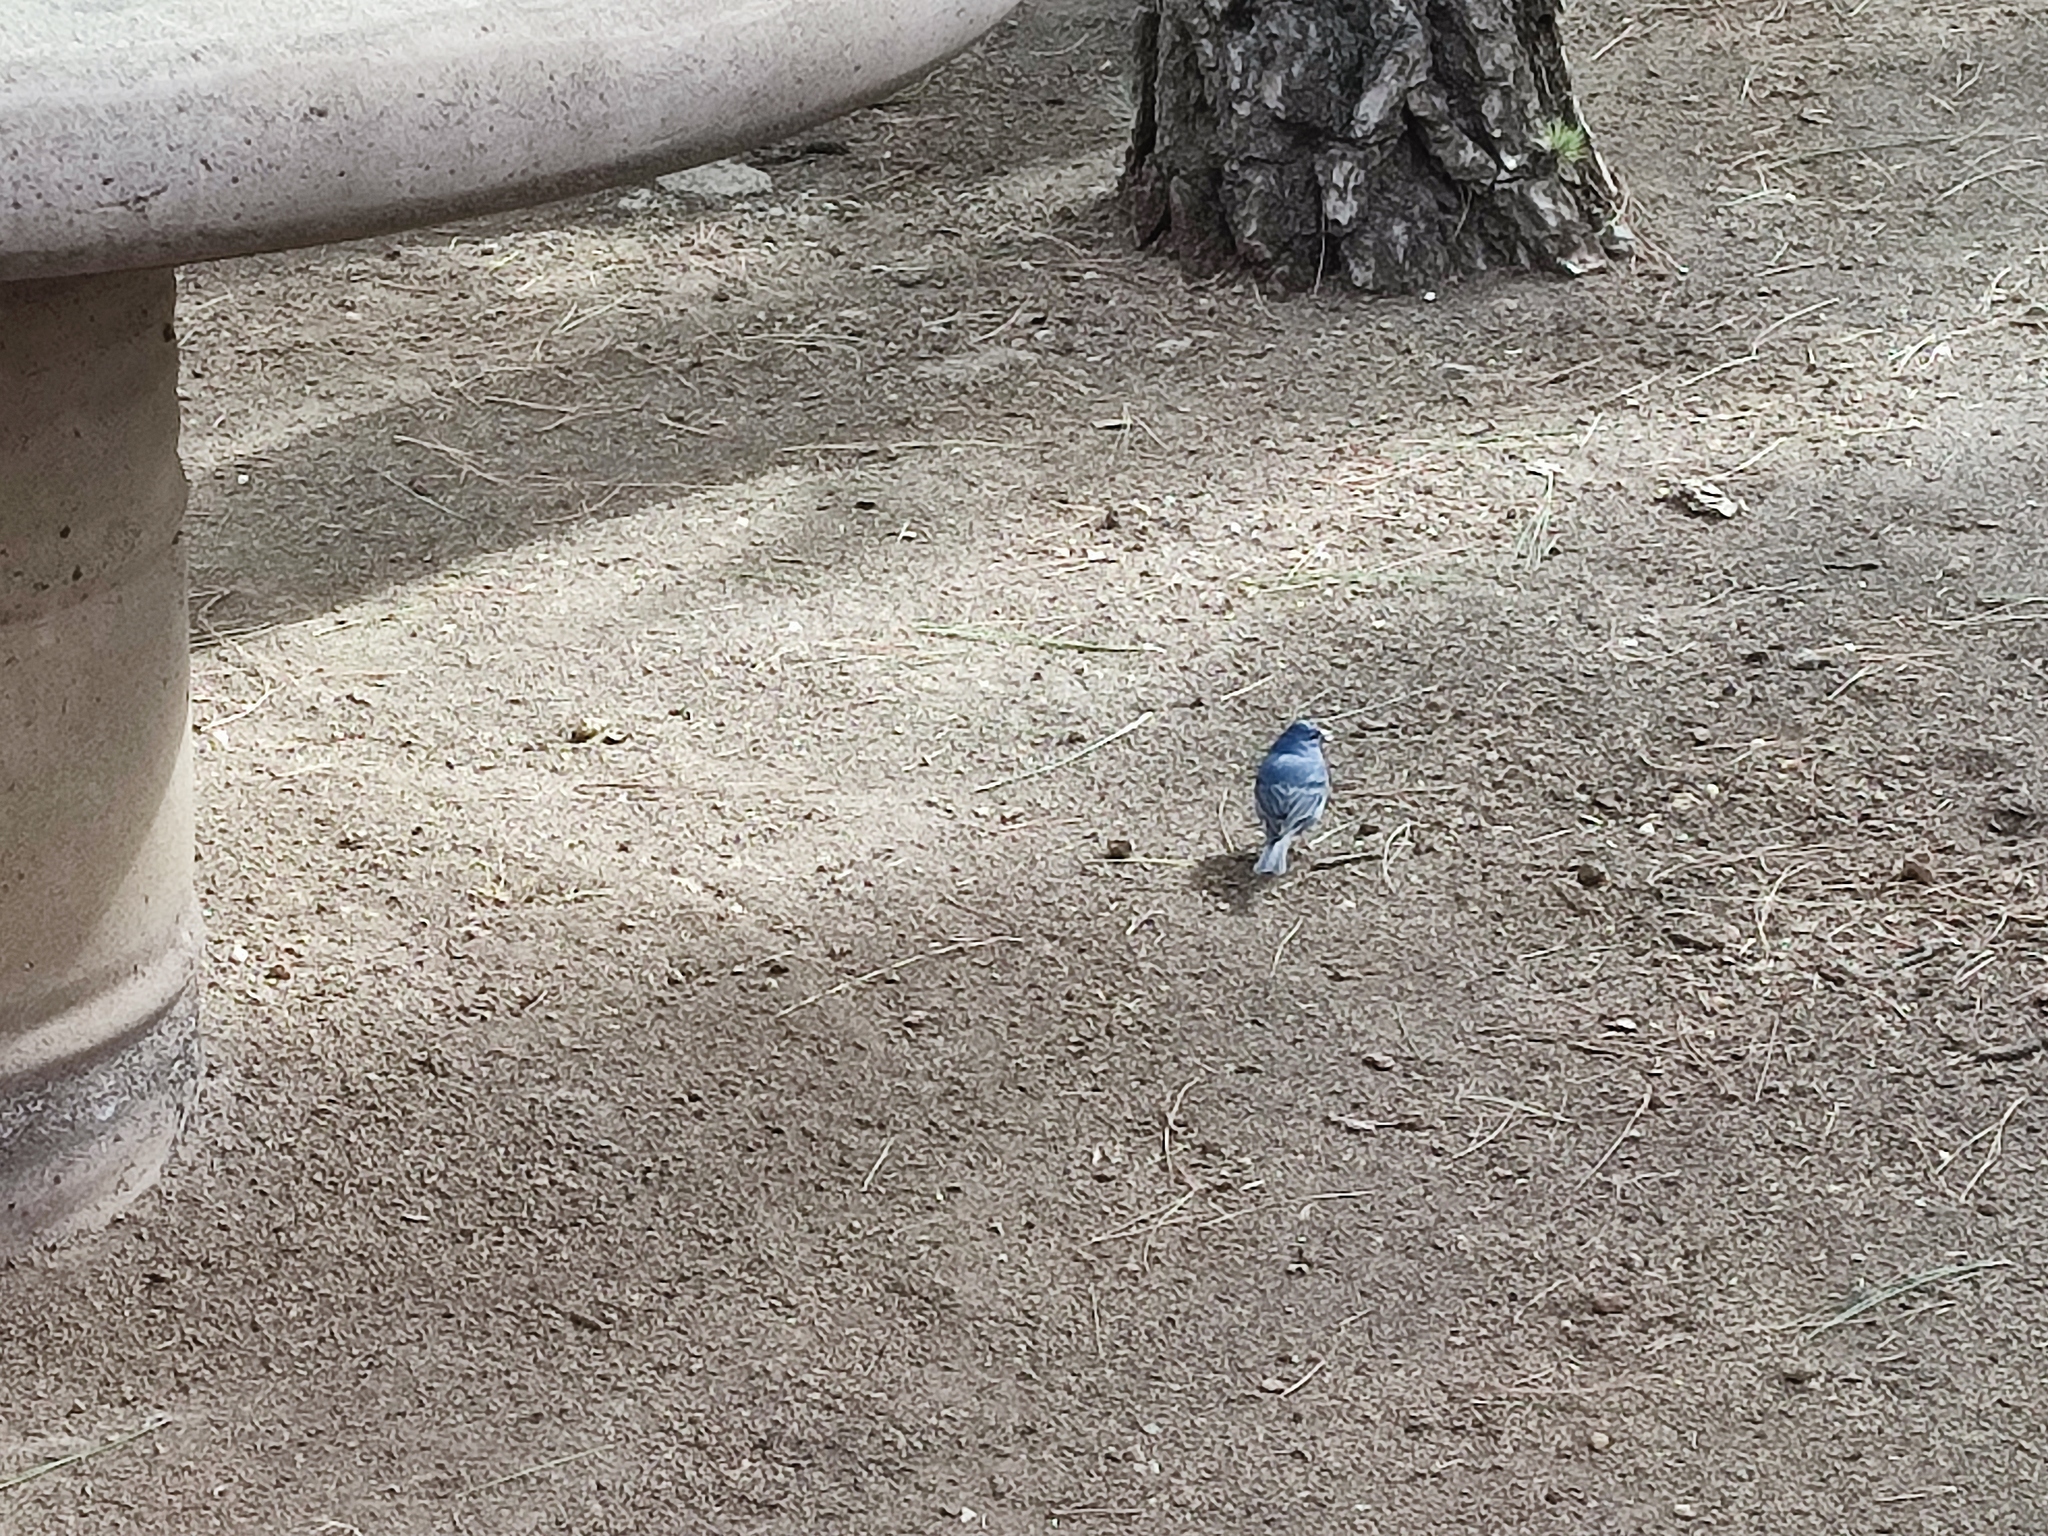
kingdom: Animalia
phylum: Chordata
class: Aves
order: Passeriformes
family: Fringillidae
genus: Fringilla
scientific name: Fringilla teydea
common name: Blue chaffinch
